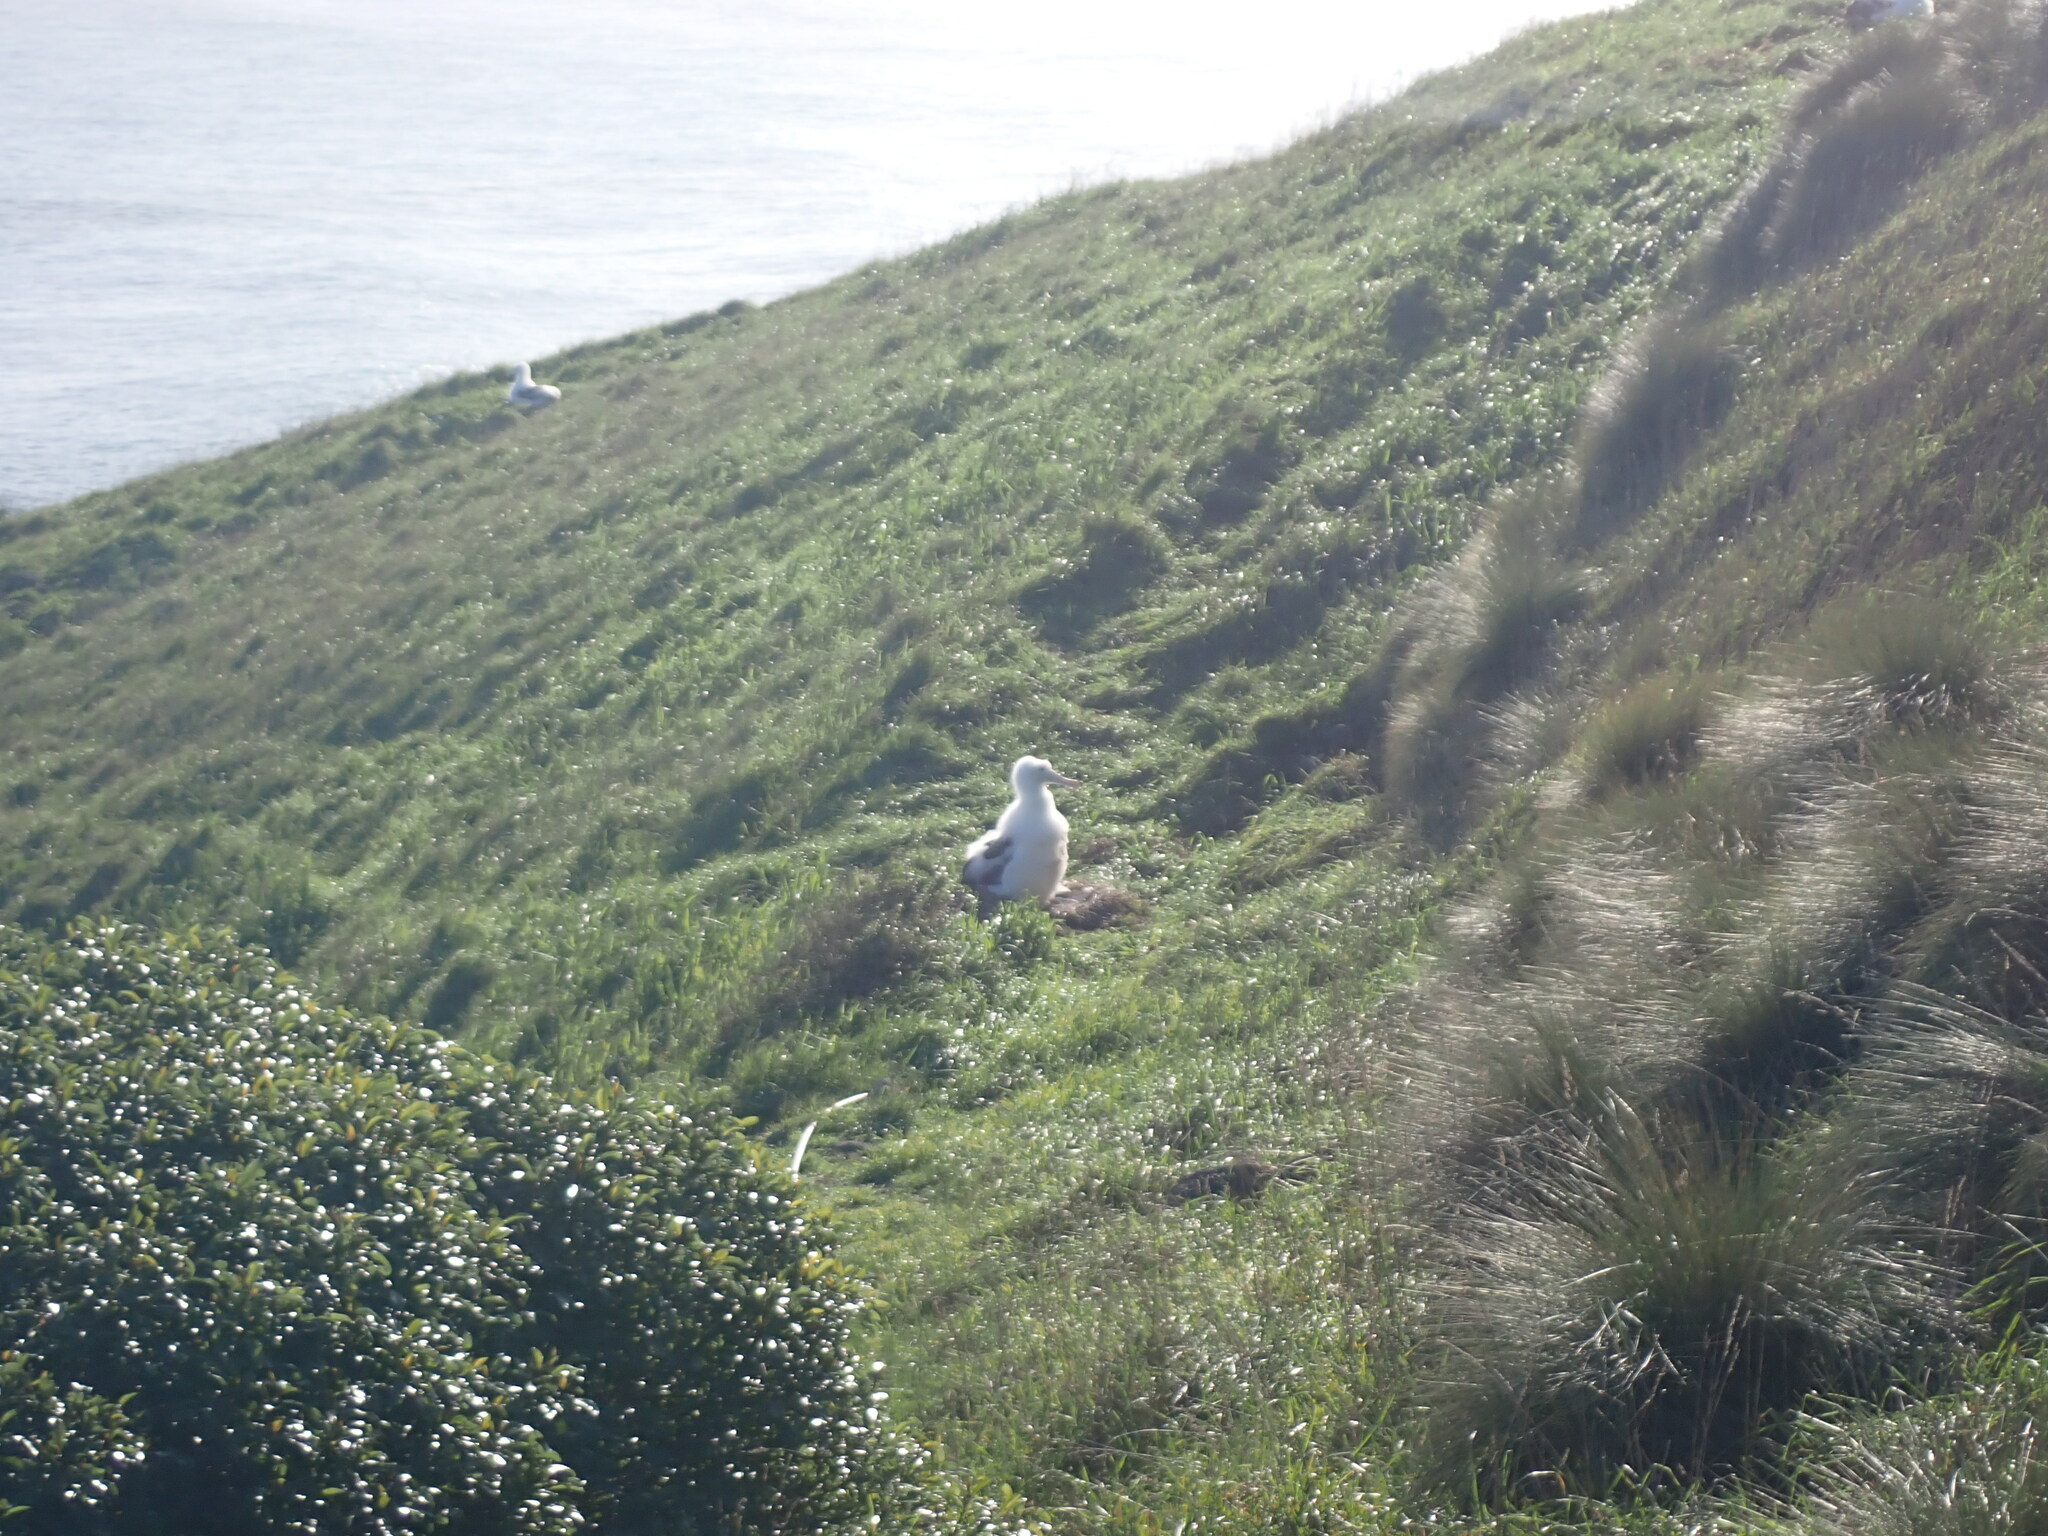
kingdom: Animalia
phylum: Chordata
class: Aves
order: Procellariiformes
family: Diomedeidae
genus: Diomedea
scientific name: Diomedea sanfordi
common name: Northern royal albatross
